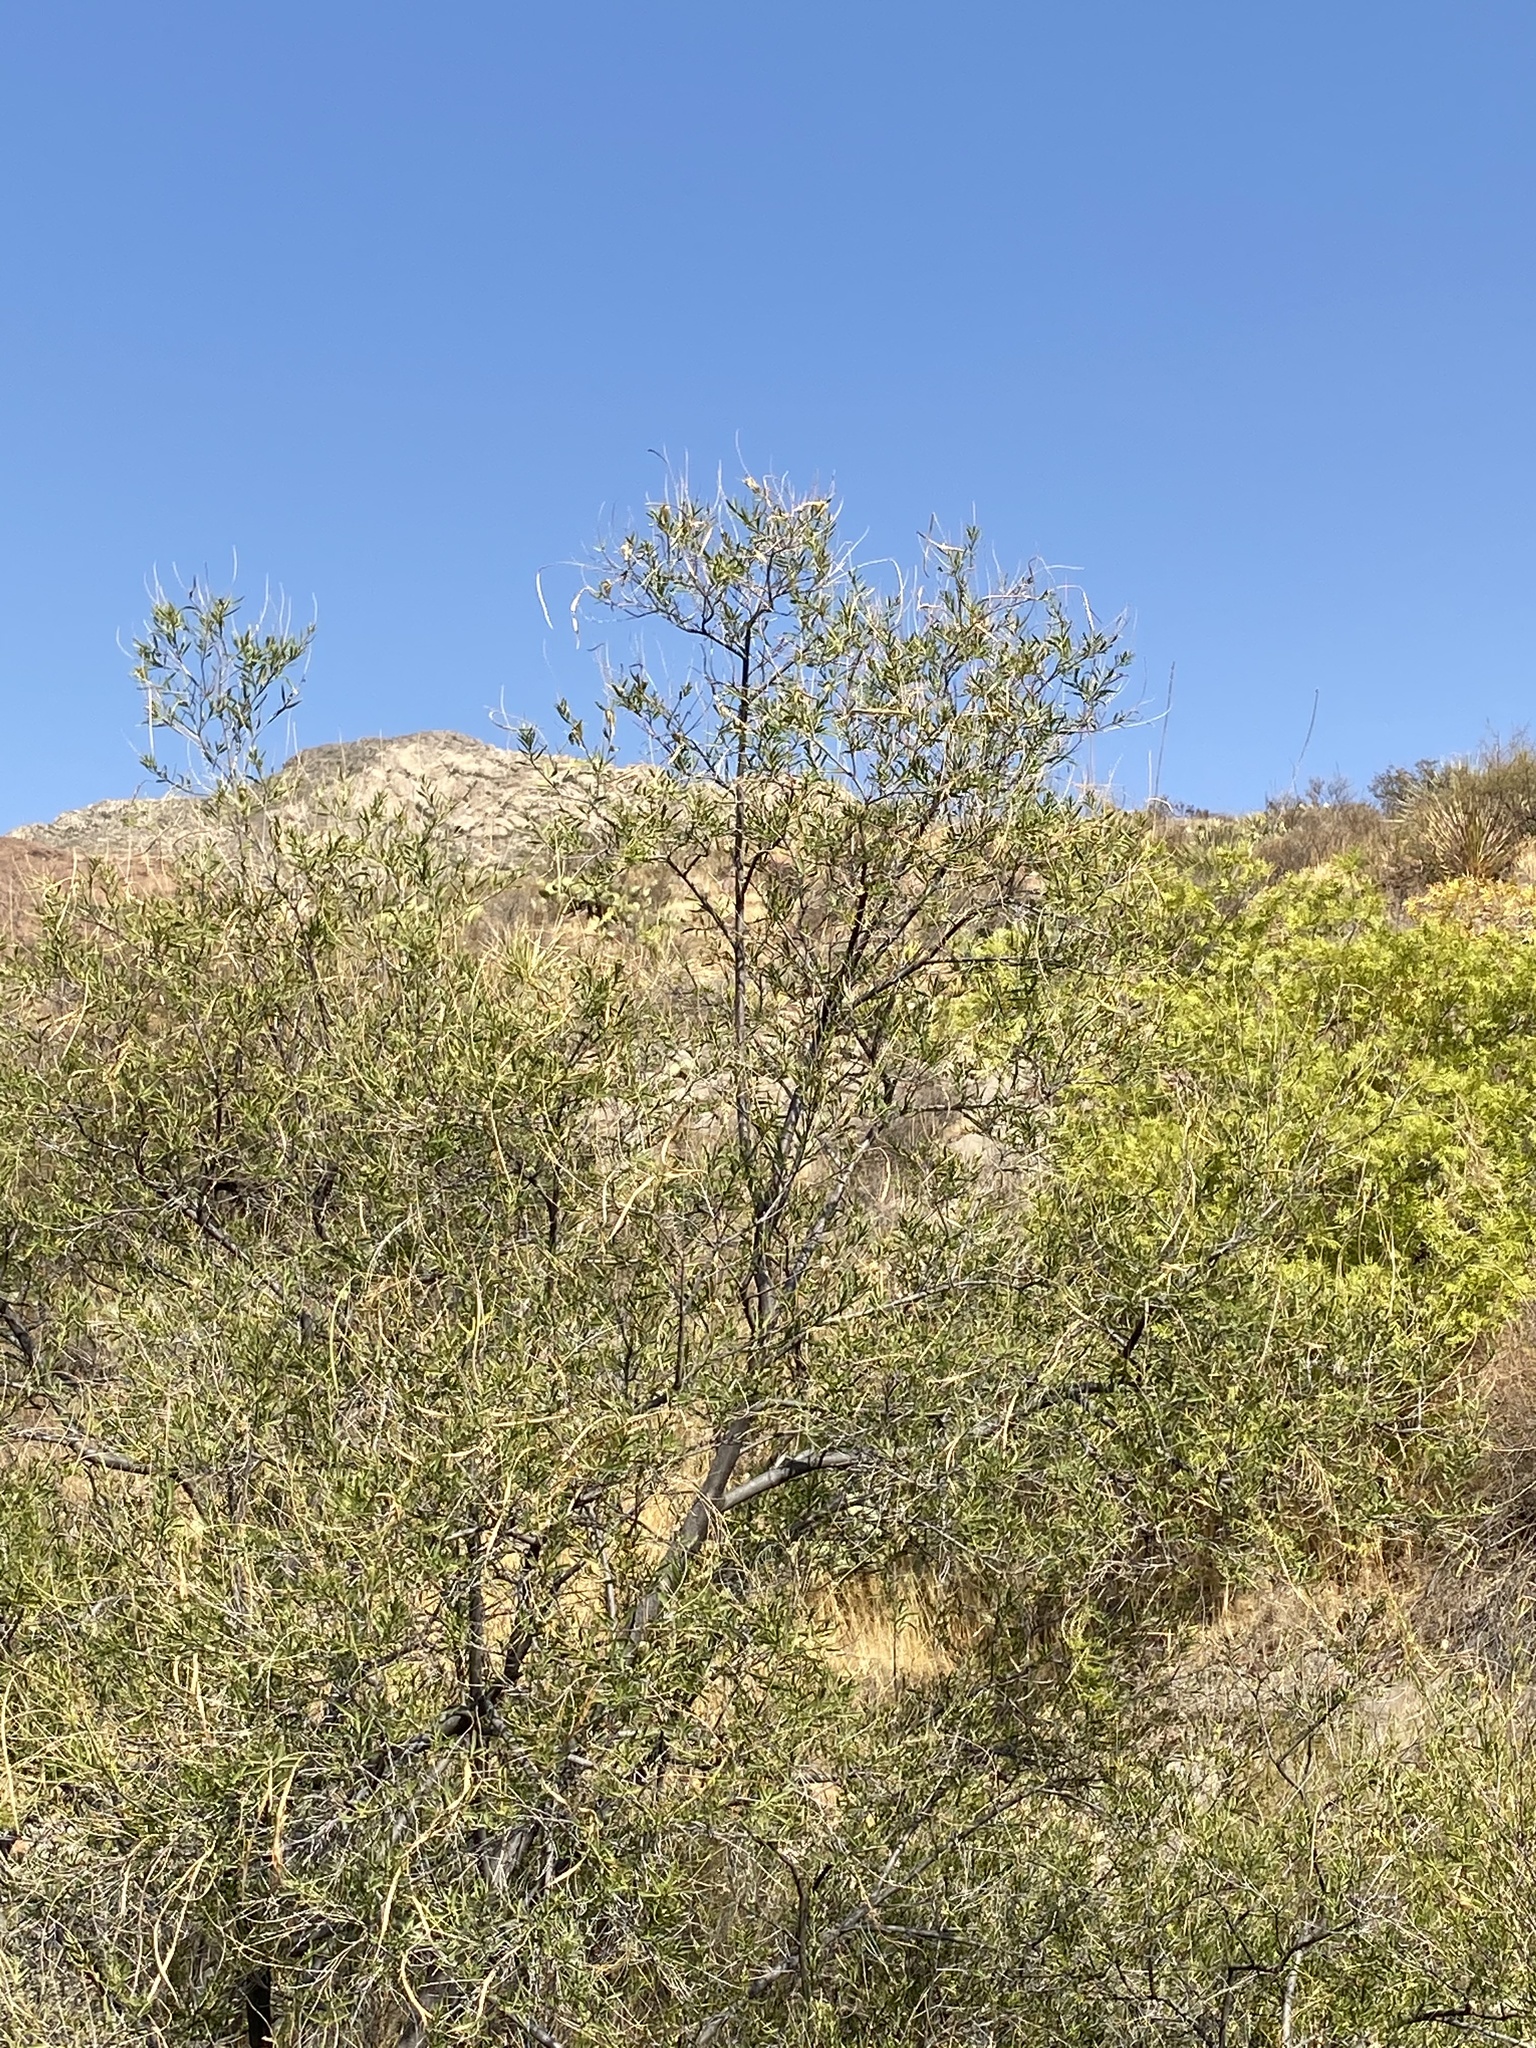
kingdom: Plantae
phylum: Tracheophyta
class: Magnoliopsida
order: Lamiales
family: Bignoniaceae
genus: Chilopsis
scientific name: Chilopsis linearis
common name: Desert-willow
